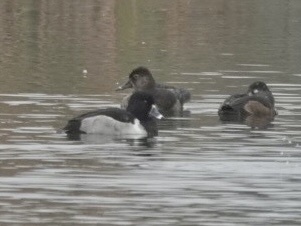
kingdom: Animalia
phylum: Chordata
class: Aves
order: Anseriformes
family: Anatidae
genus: Aythya
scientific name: Aythya collaris
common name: Ring-necked duck
